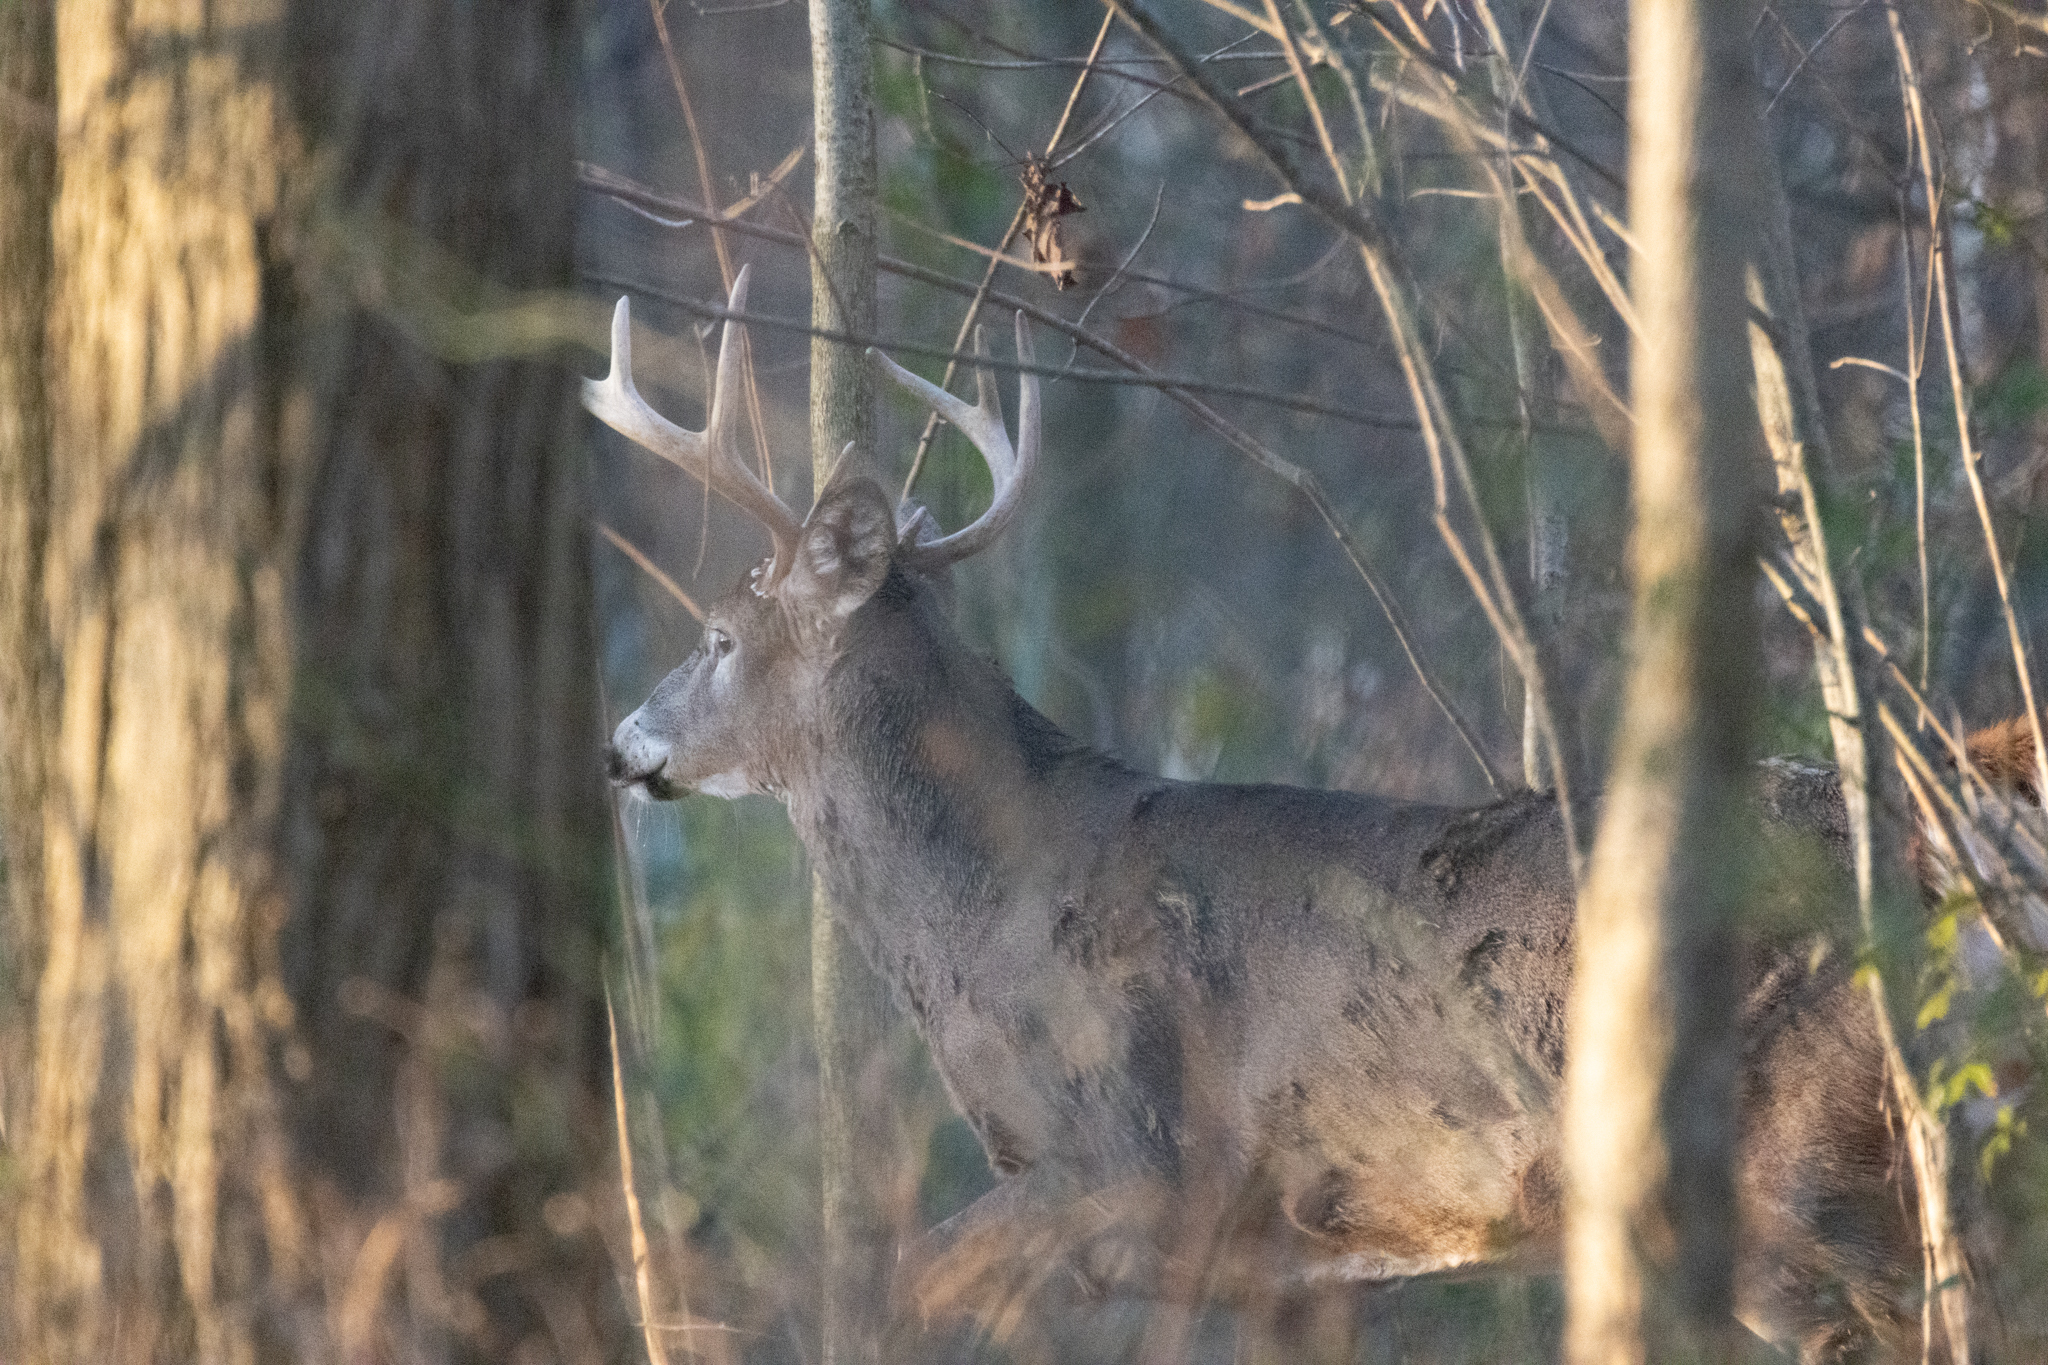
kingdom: Animalia
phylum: Chordata
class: Mammalia
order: Artiodactyla
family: Cervidae
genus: Odocoileus
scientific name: Odocoileus virginianus
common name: White-tailed deer
